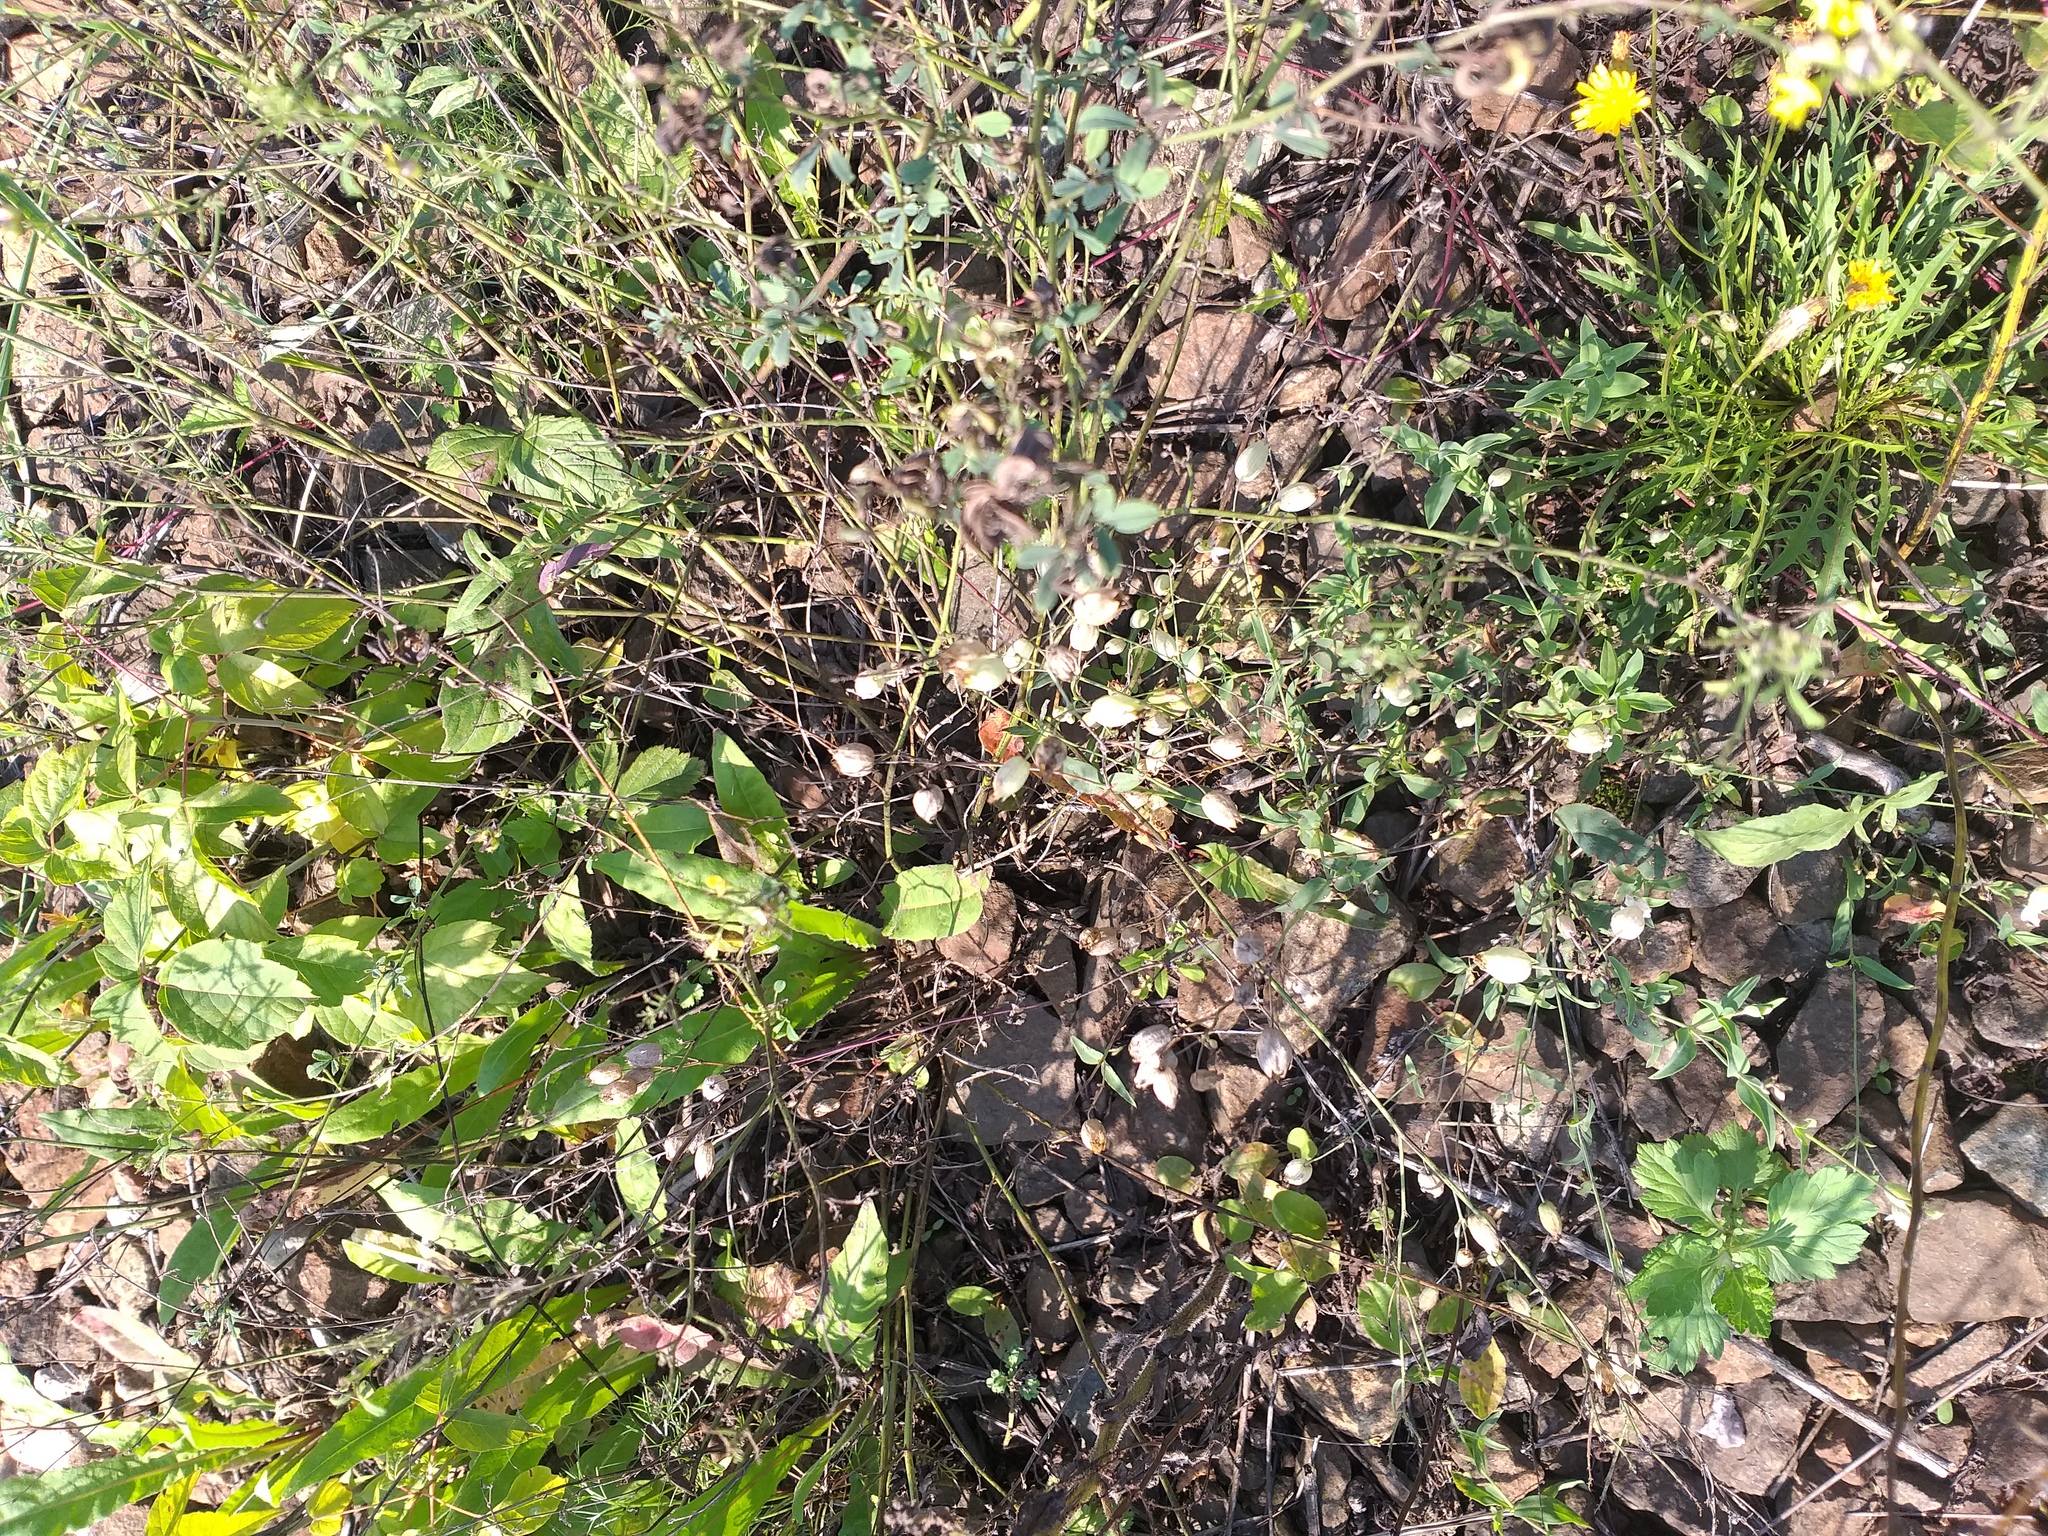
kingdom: Plantae
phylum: Tracheophyta
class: Magnoliopsida
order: Caryophyllales
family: Caryophyllaceae
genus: Silene
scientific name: Silene vulgaris
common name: Bladder campion
